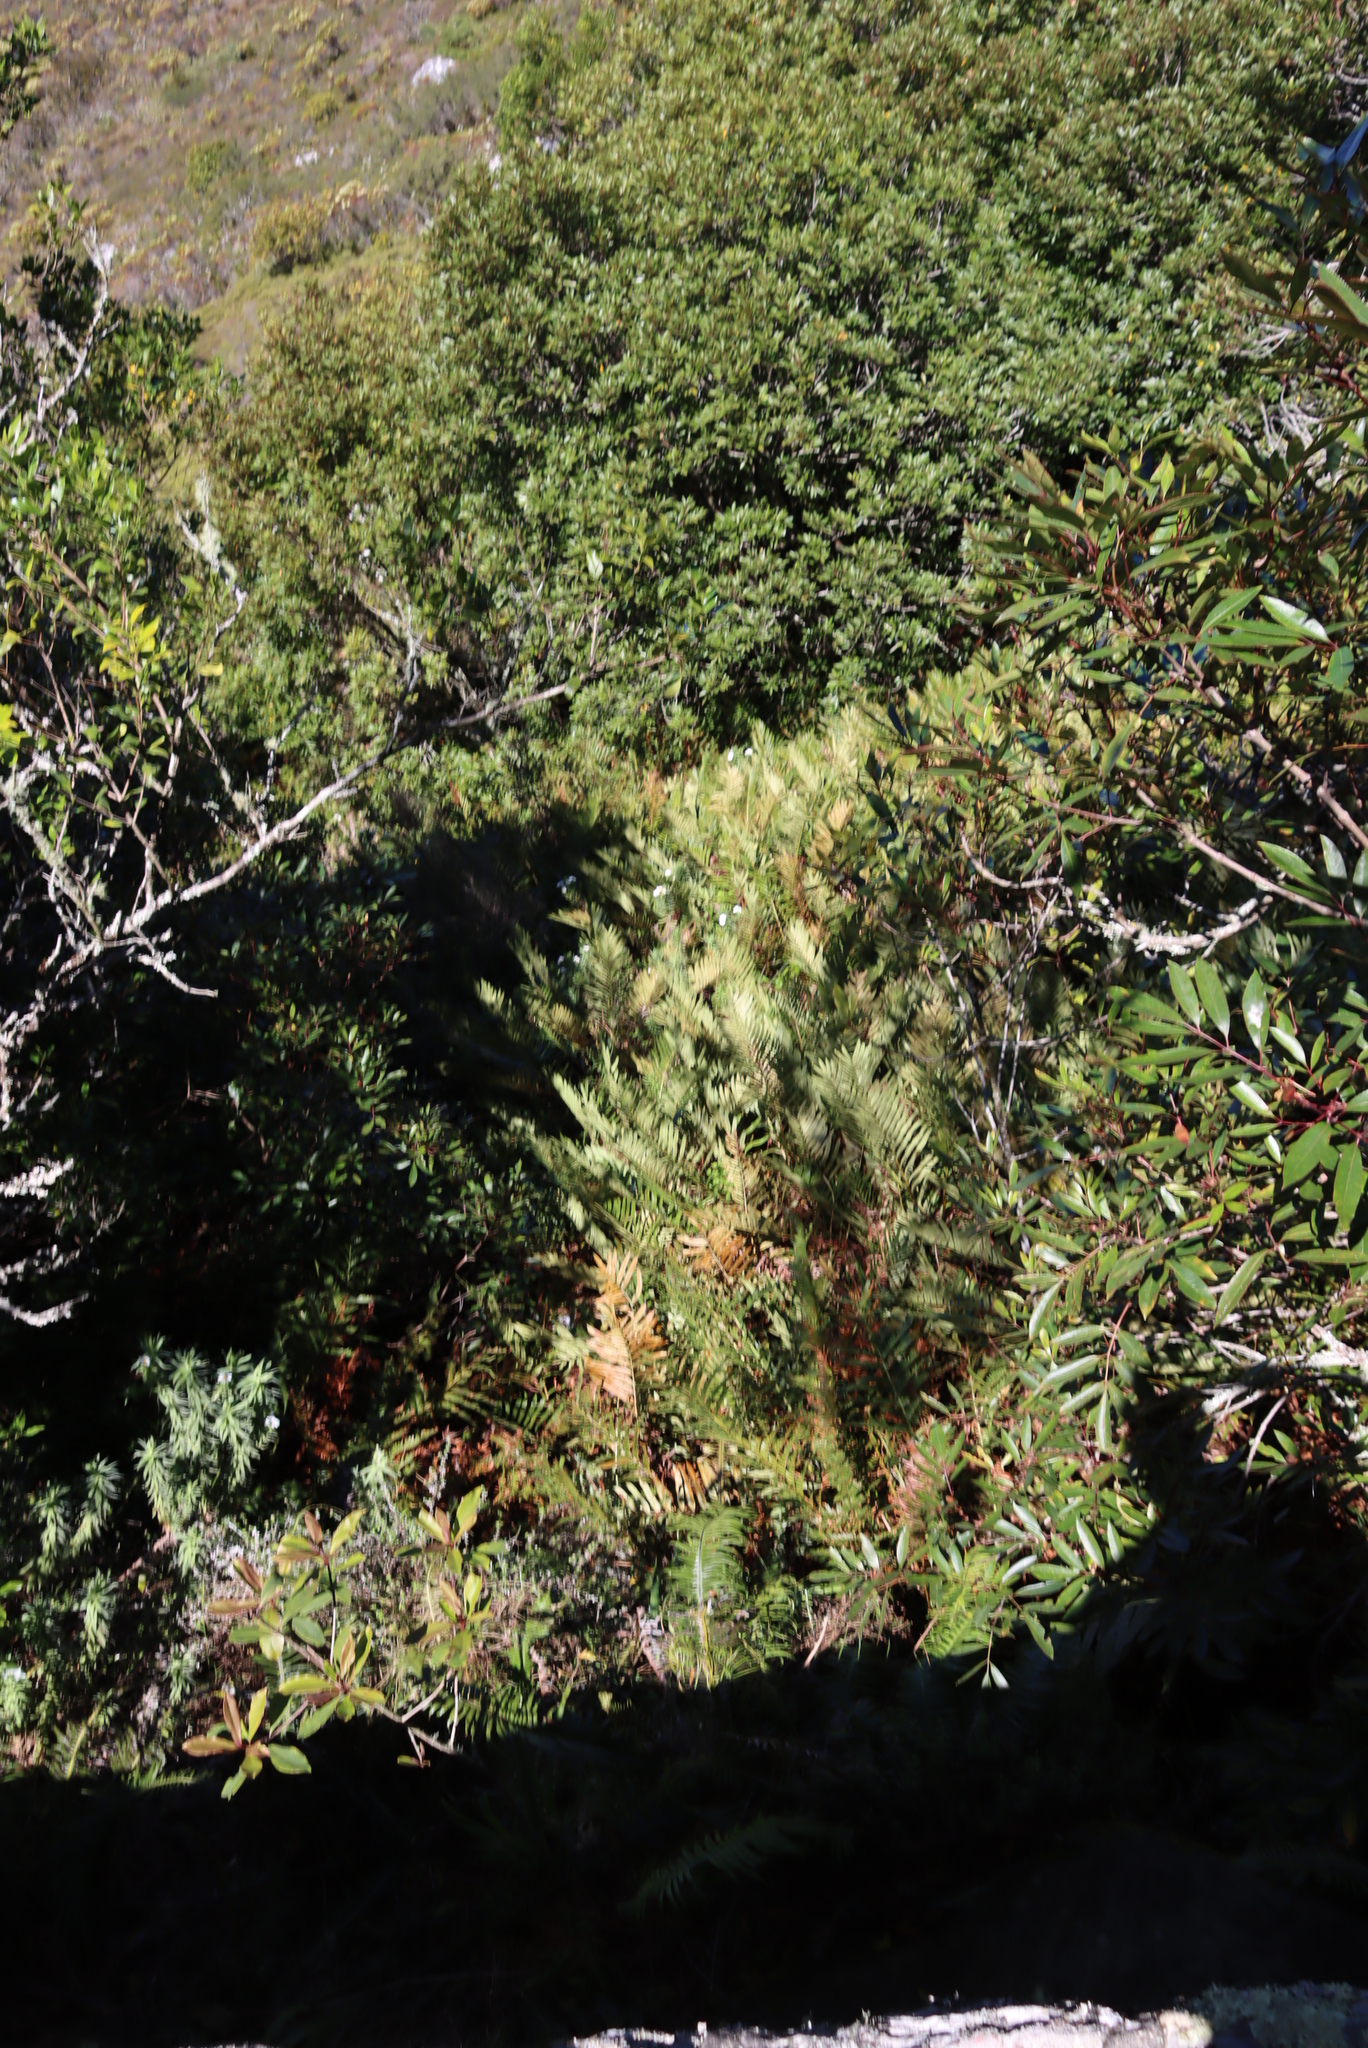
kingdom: Plantae
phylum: Tracheophyta
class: Polypodiopsida
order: Osmundales
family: Osmundaceae
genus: Todea
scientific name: Todea barbara
